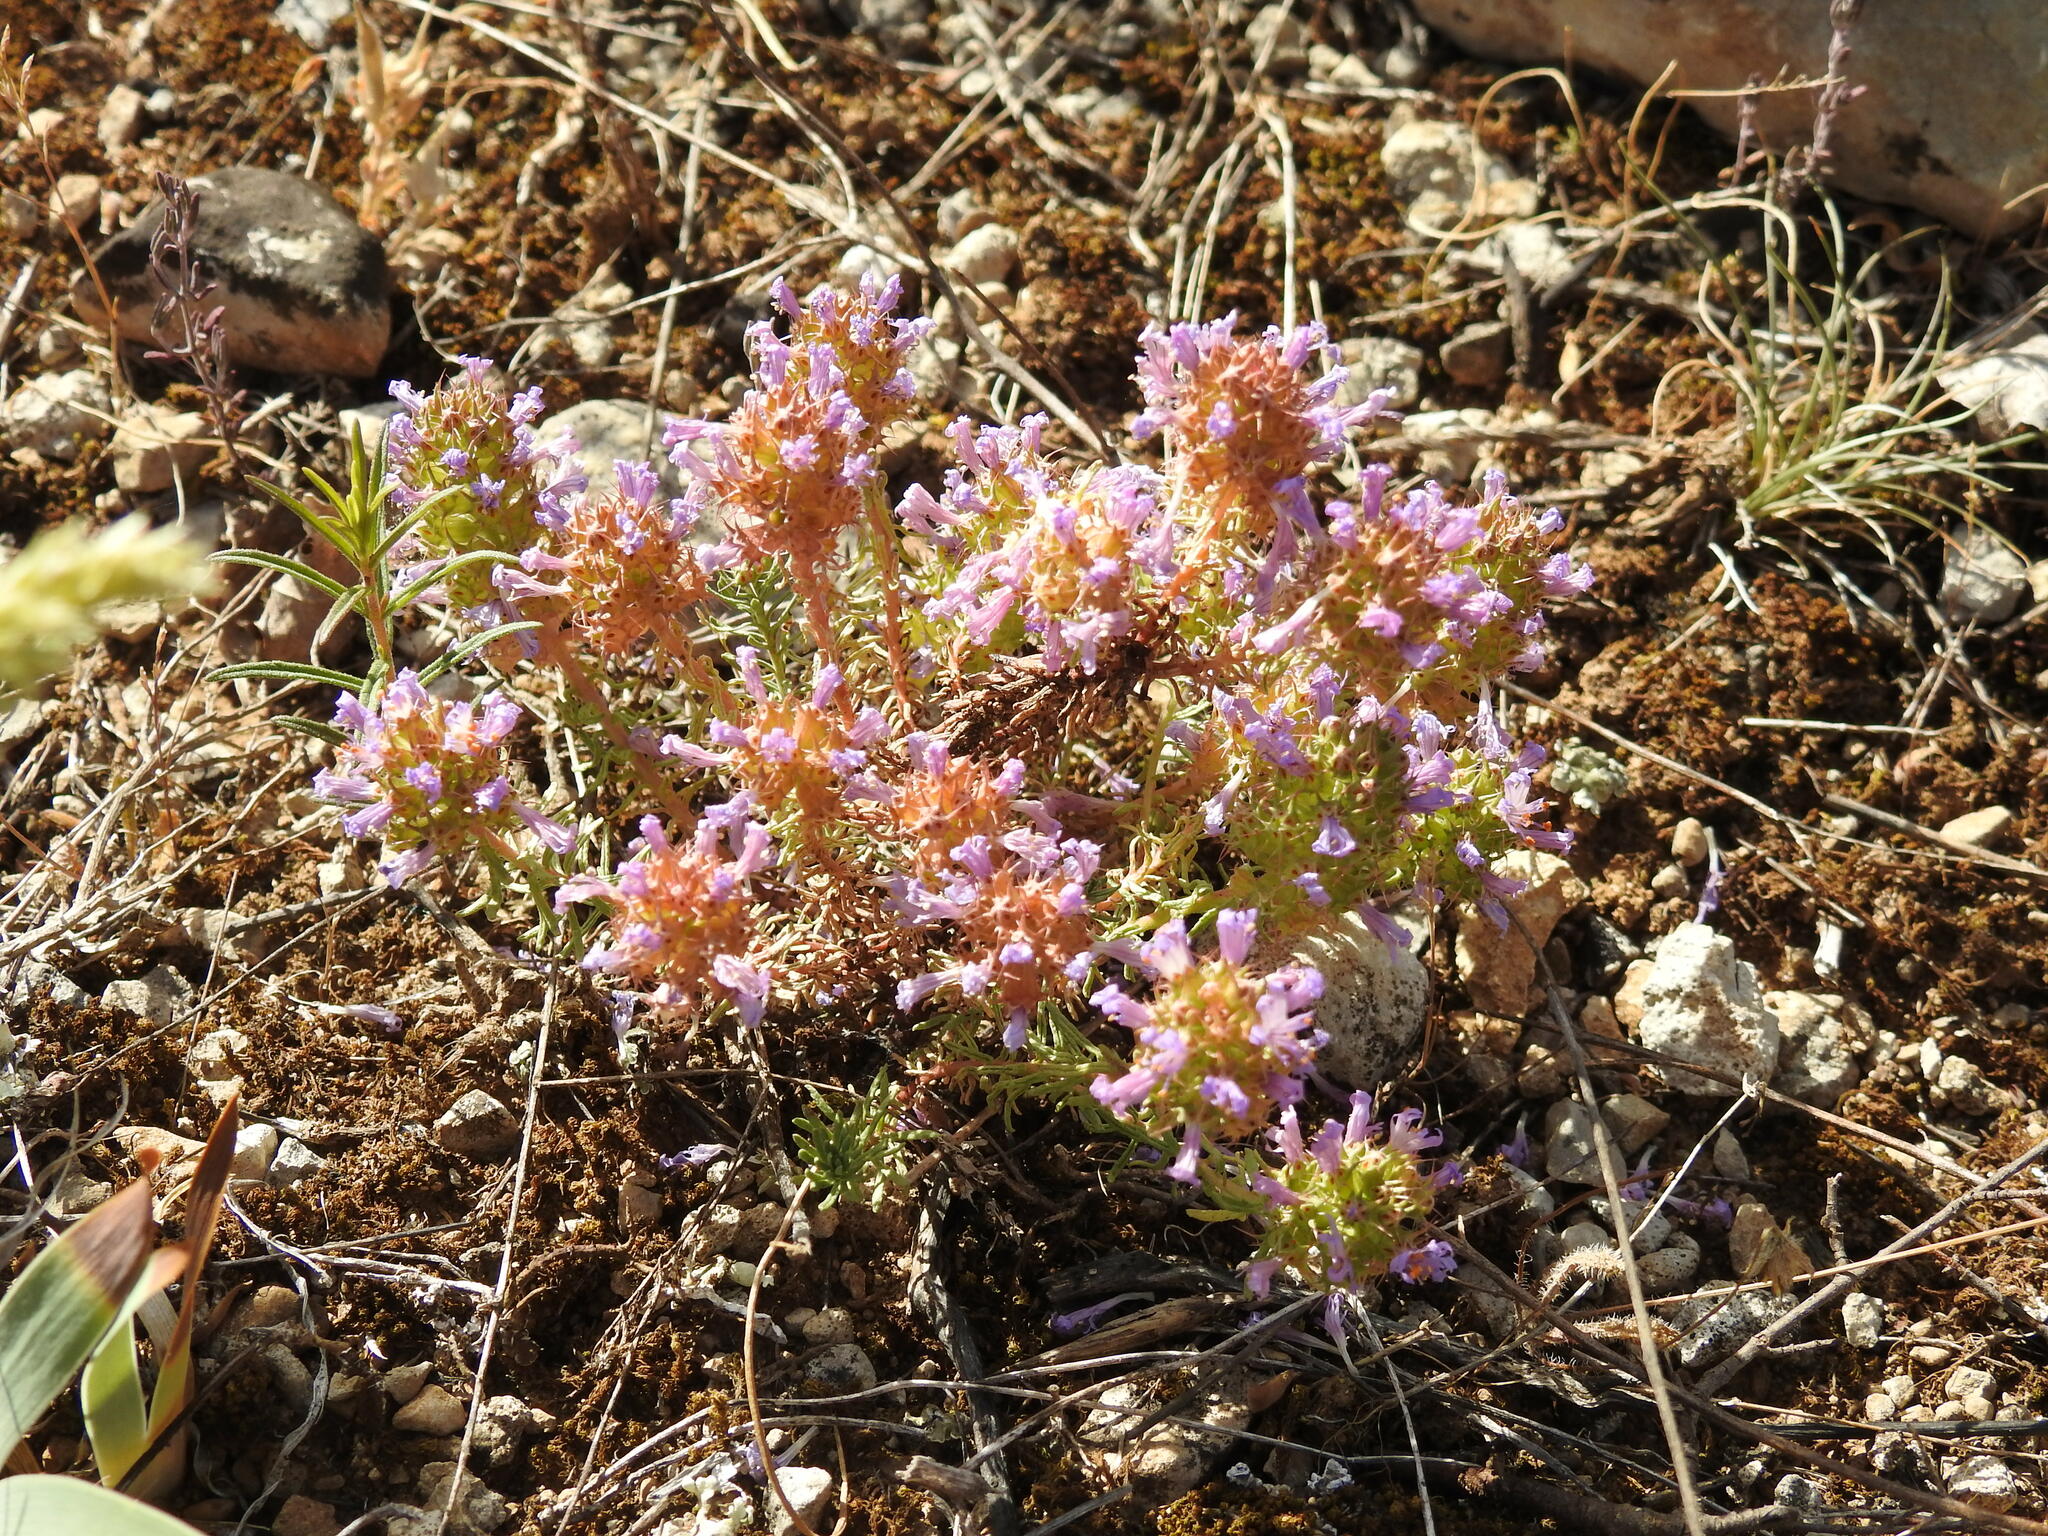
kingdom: Plantae
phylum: Tracheophyta
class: Magnoliopsida
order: Ericales
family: Primulaceae
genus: Coris
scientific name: Coris monspeliensis
